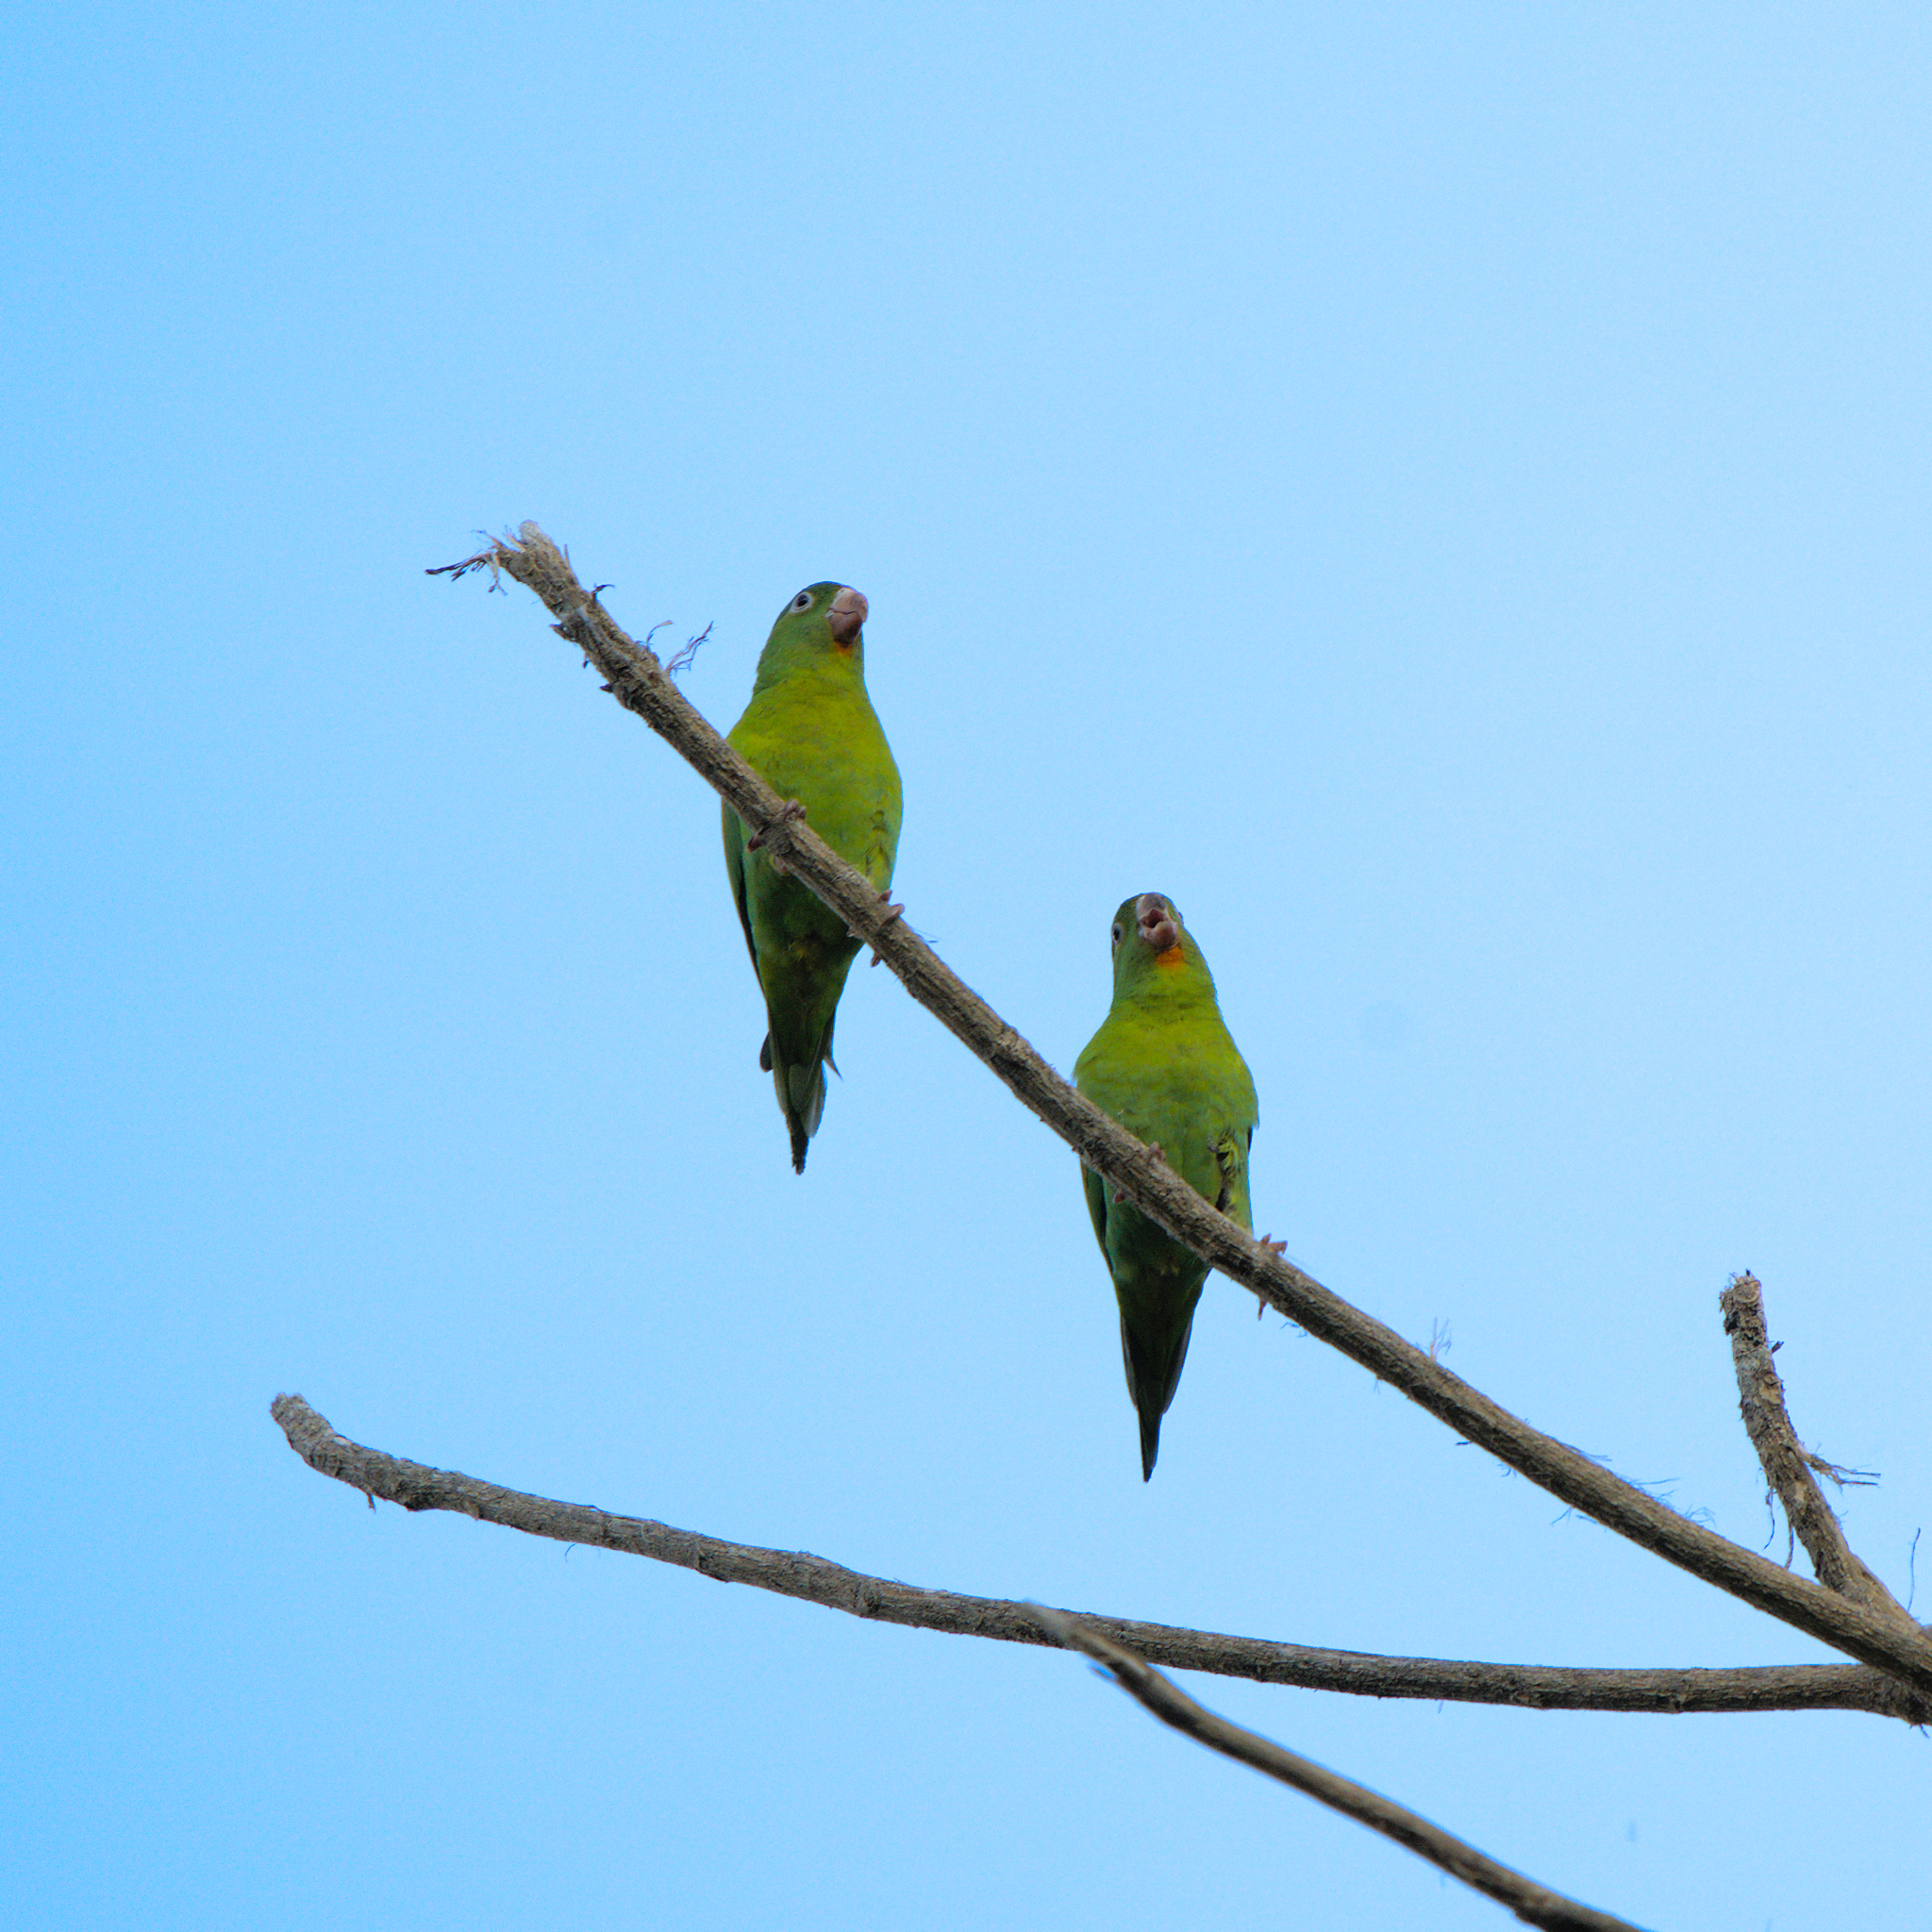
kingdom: Animalia
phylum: Chordata
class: Aves
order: Psittaciformes
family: Psittacidae
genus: Brotogeris
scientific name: Brotogeris jugularis
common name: Orange-chinned parakeet
